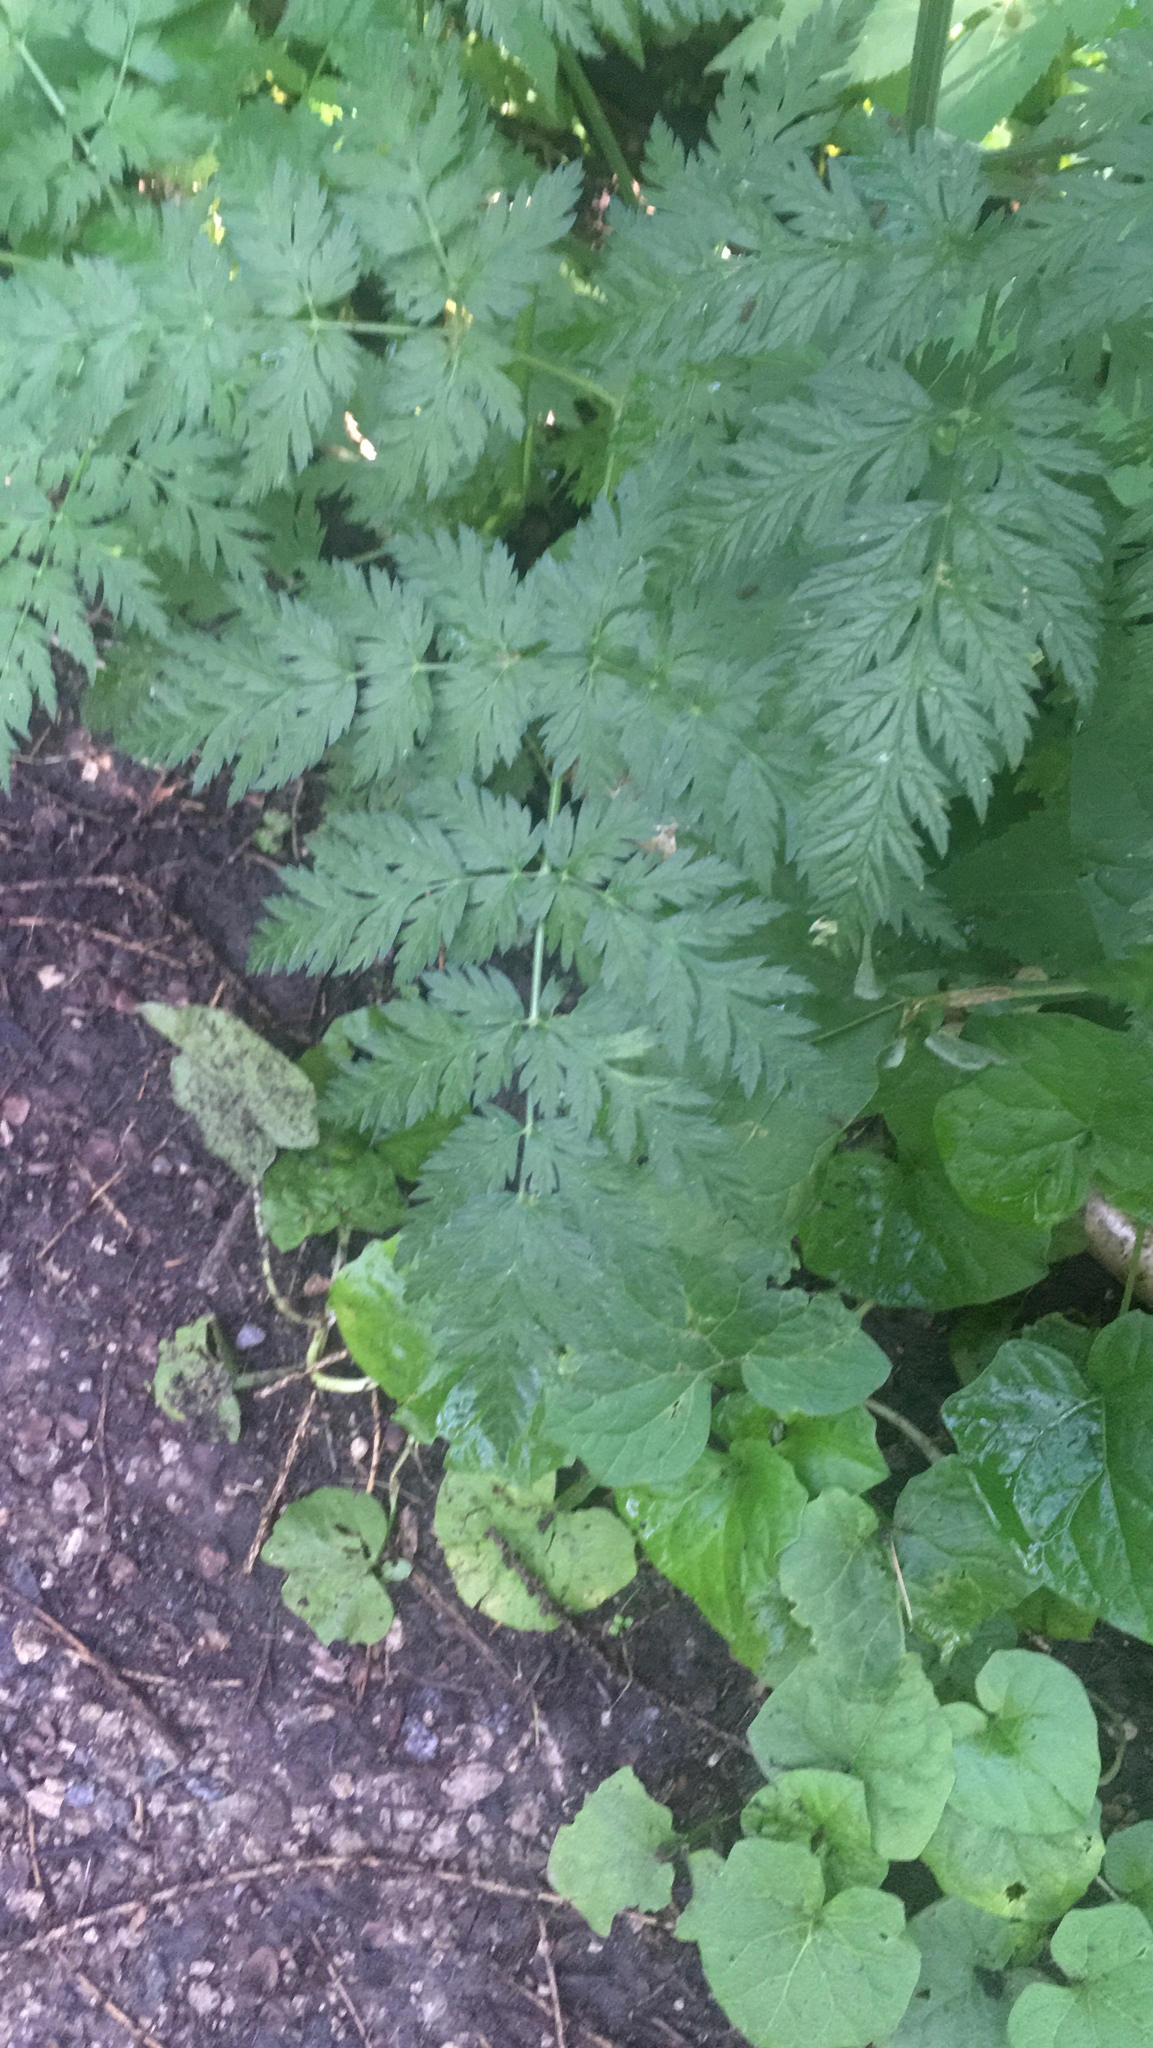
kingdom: Plantae
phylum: Tracheophyta
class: Magnoliopsida
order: Apiales
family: Apiaceae
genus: Anthriscus
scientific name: Anthriscus sylvestris
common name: Cow parsley
